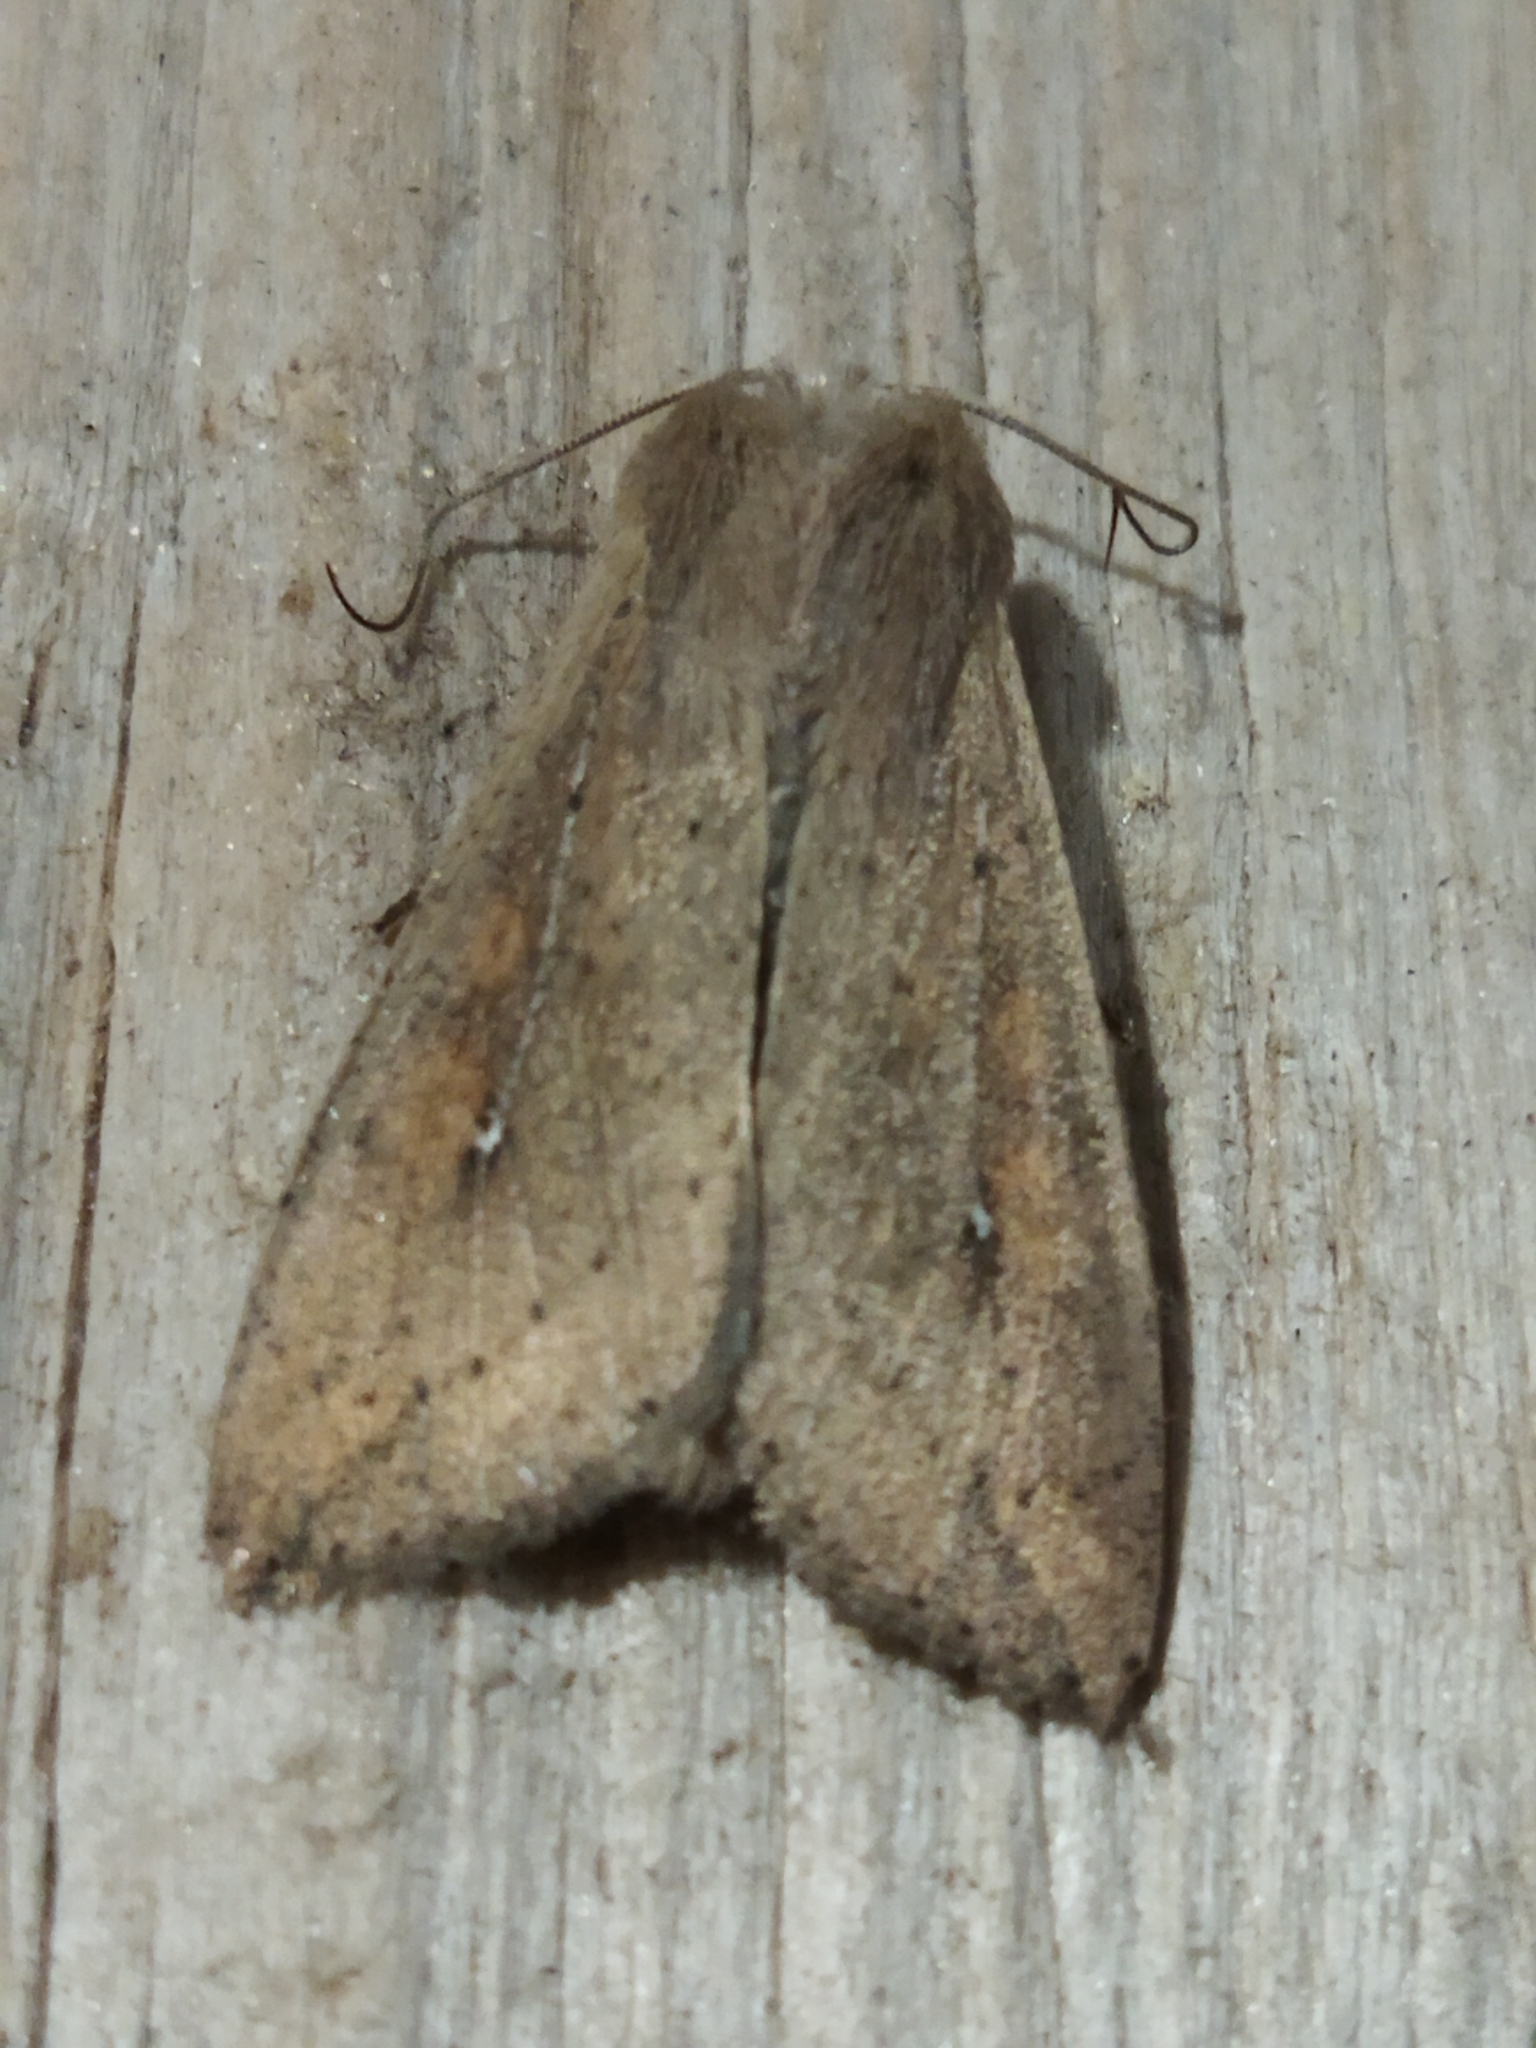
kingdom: Animalia
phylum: Arthropoda
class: Insecta
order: Lepidoptera
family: Noctuidae
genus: Mythimna
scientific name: Mythimna unipuncta
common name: White-speck
